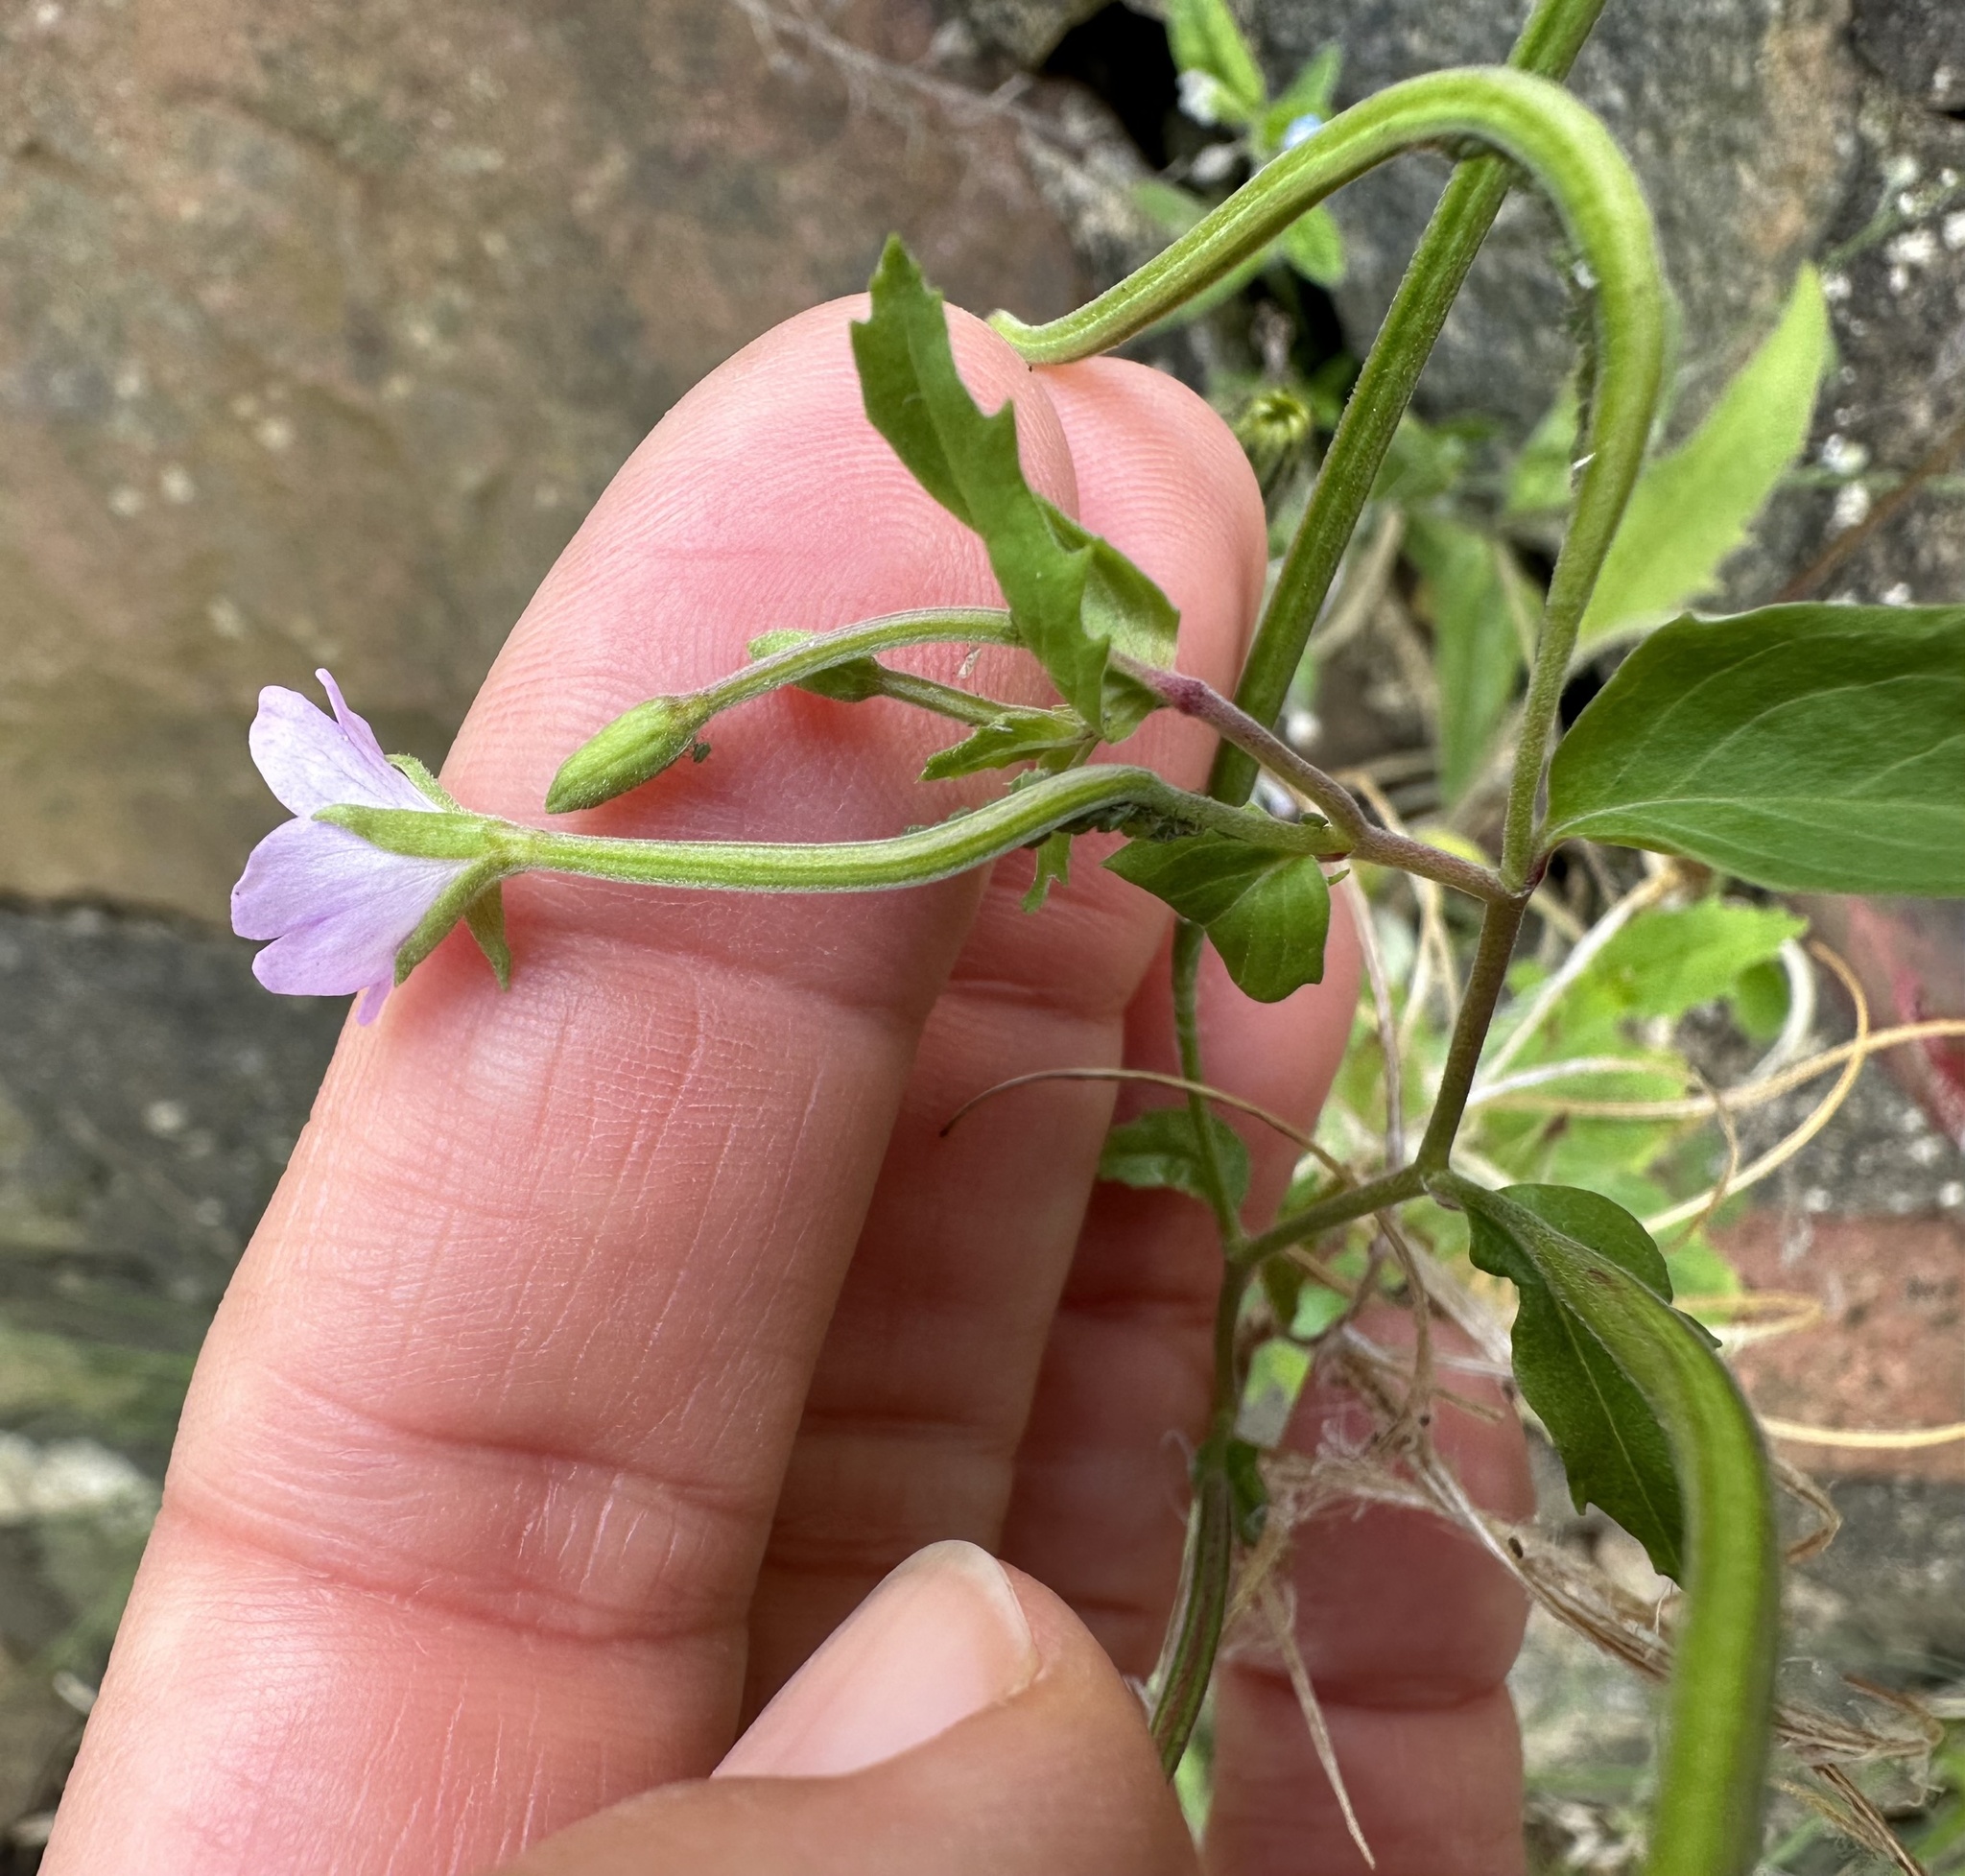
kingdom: Plantae
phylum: Tracheophyta
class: Magnoliopsida
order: Myrtales
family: Onagraceae
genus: Epilobium
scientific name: Epilobium parviflorum
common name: Hoary willowherb
